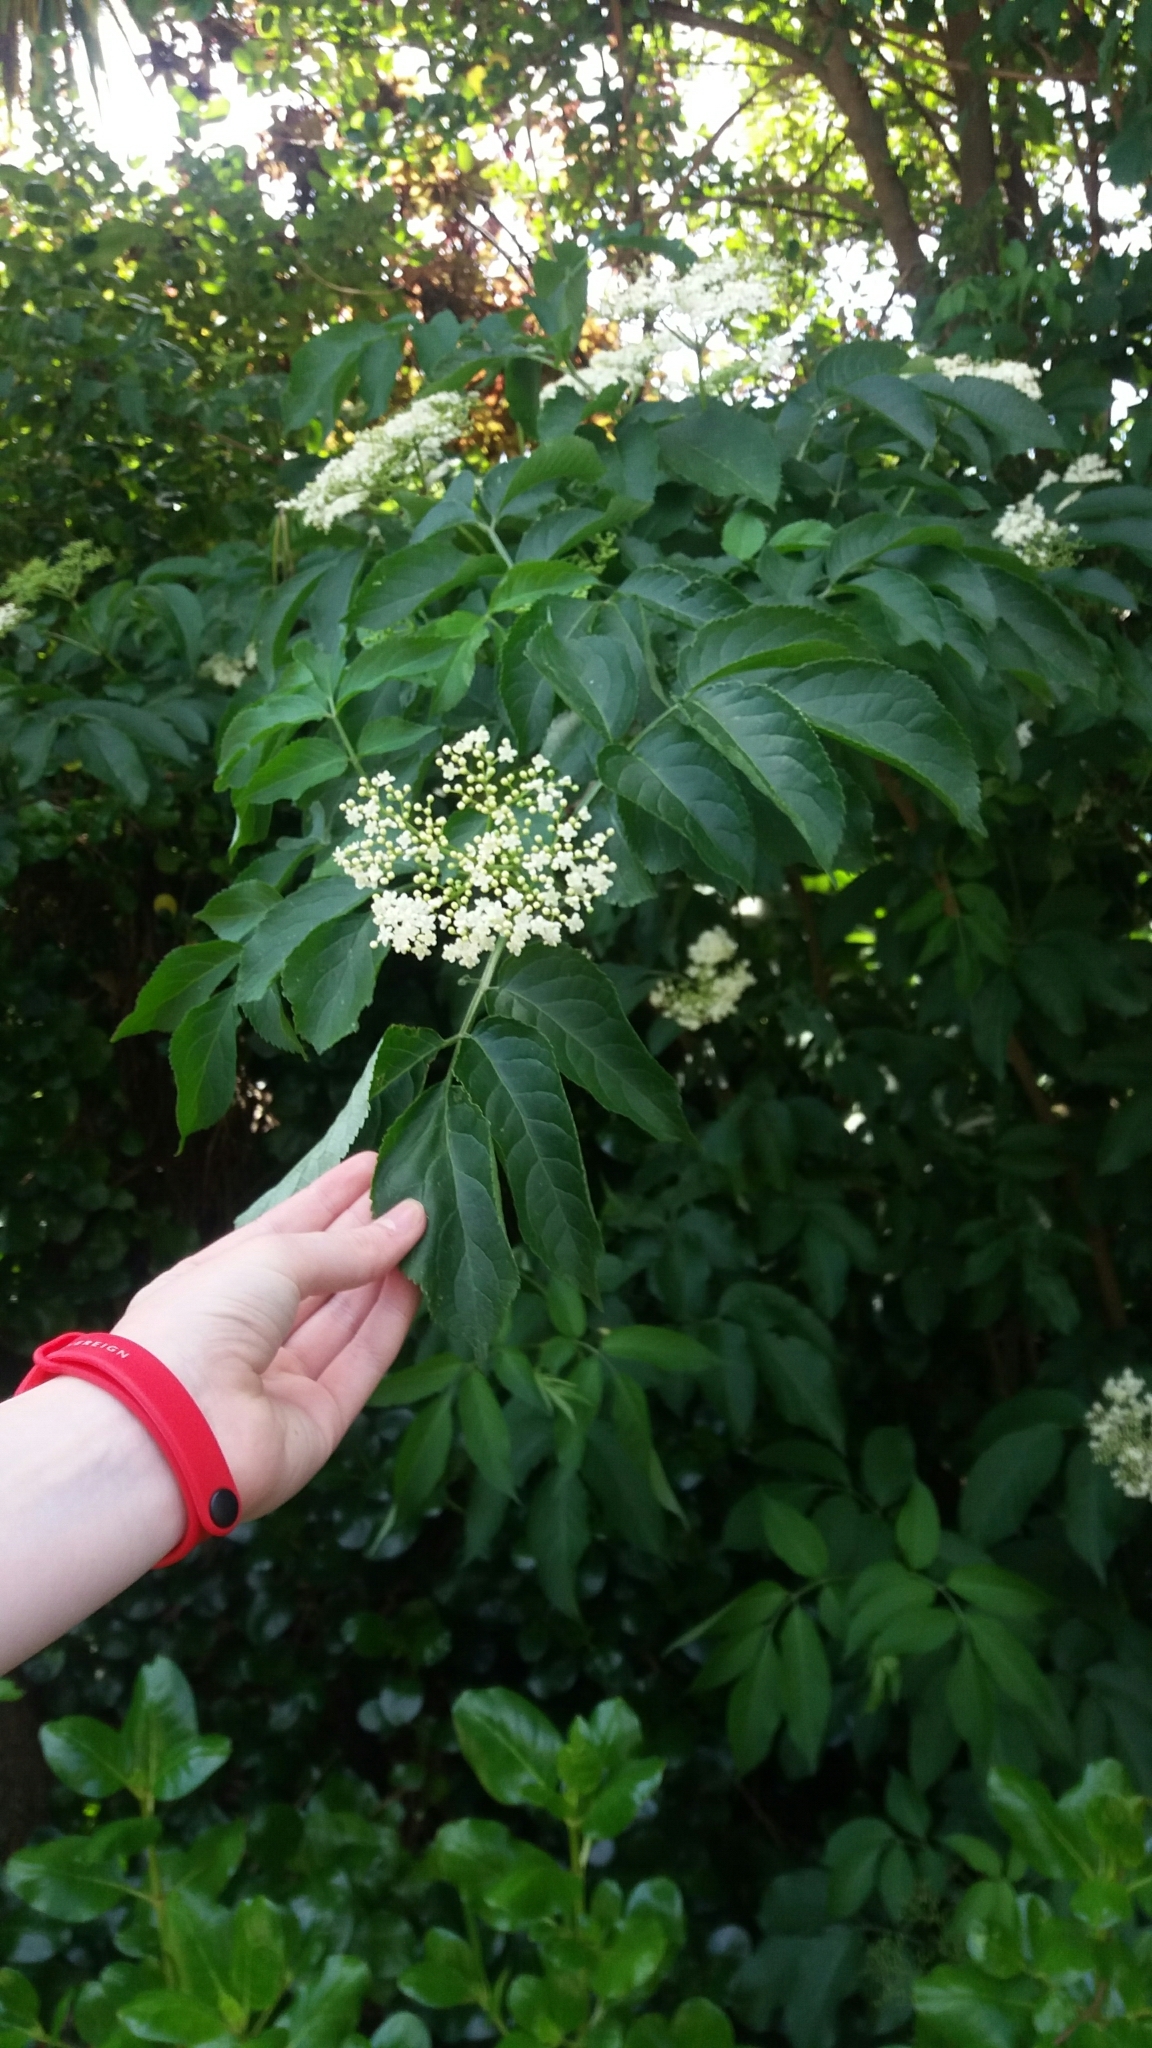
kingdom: Plantae
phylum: Tracheophyta
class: Magnoliopsida
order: Dipsacales
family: Viburnaceae
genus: Sambucus
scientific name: Sambucus nigra
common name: Elder
